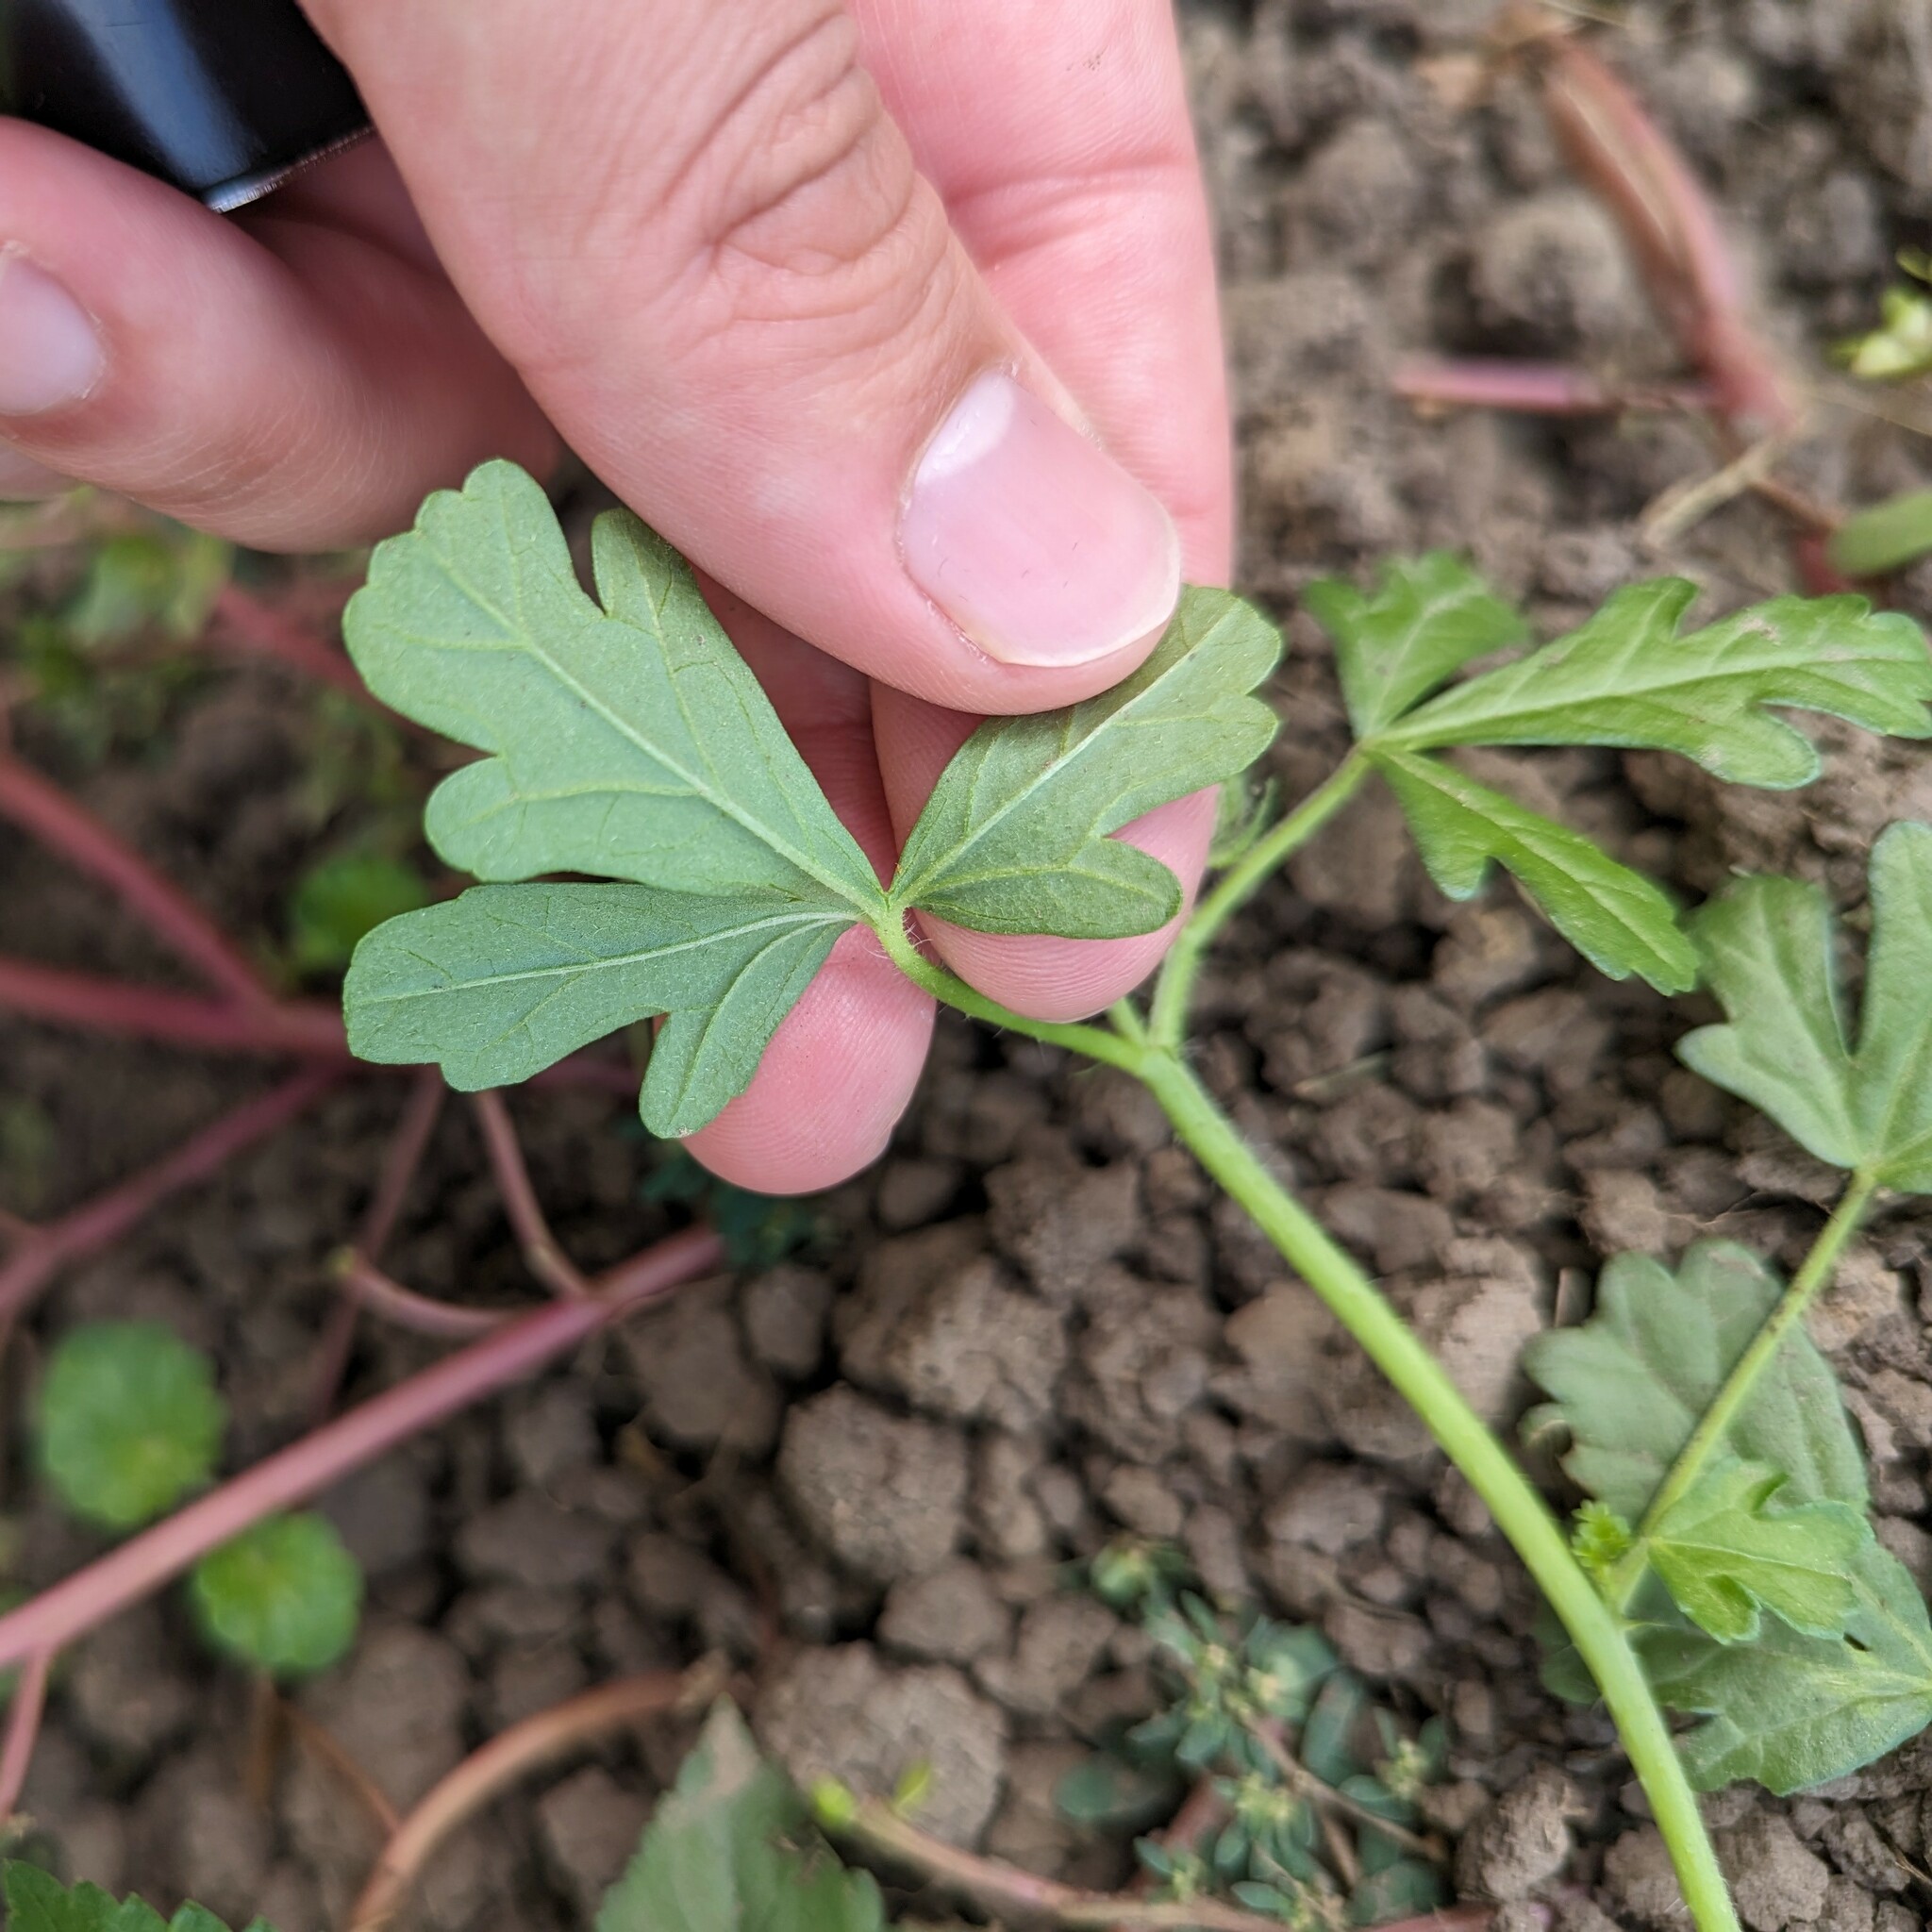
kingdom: Plantae
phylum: Tracheophyta
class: Magnoliopsida
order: Malvales
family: Malvaceae
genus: Hibiscus
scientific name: Hibiscus trionum
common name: Bladder ketmia
